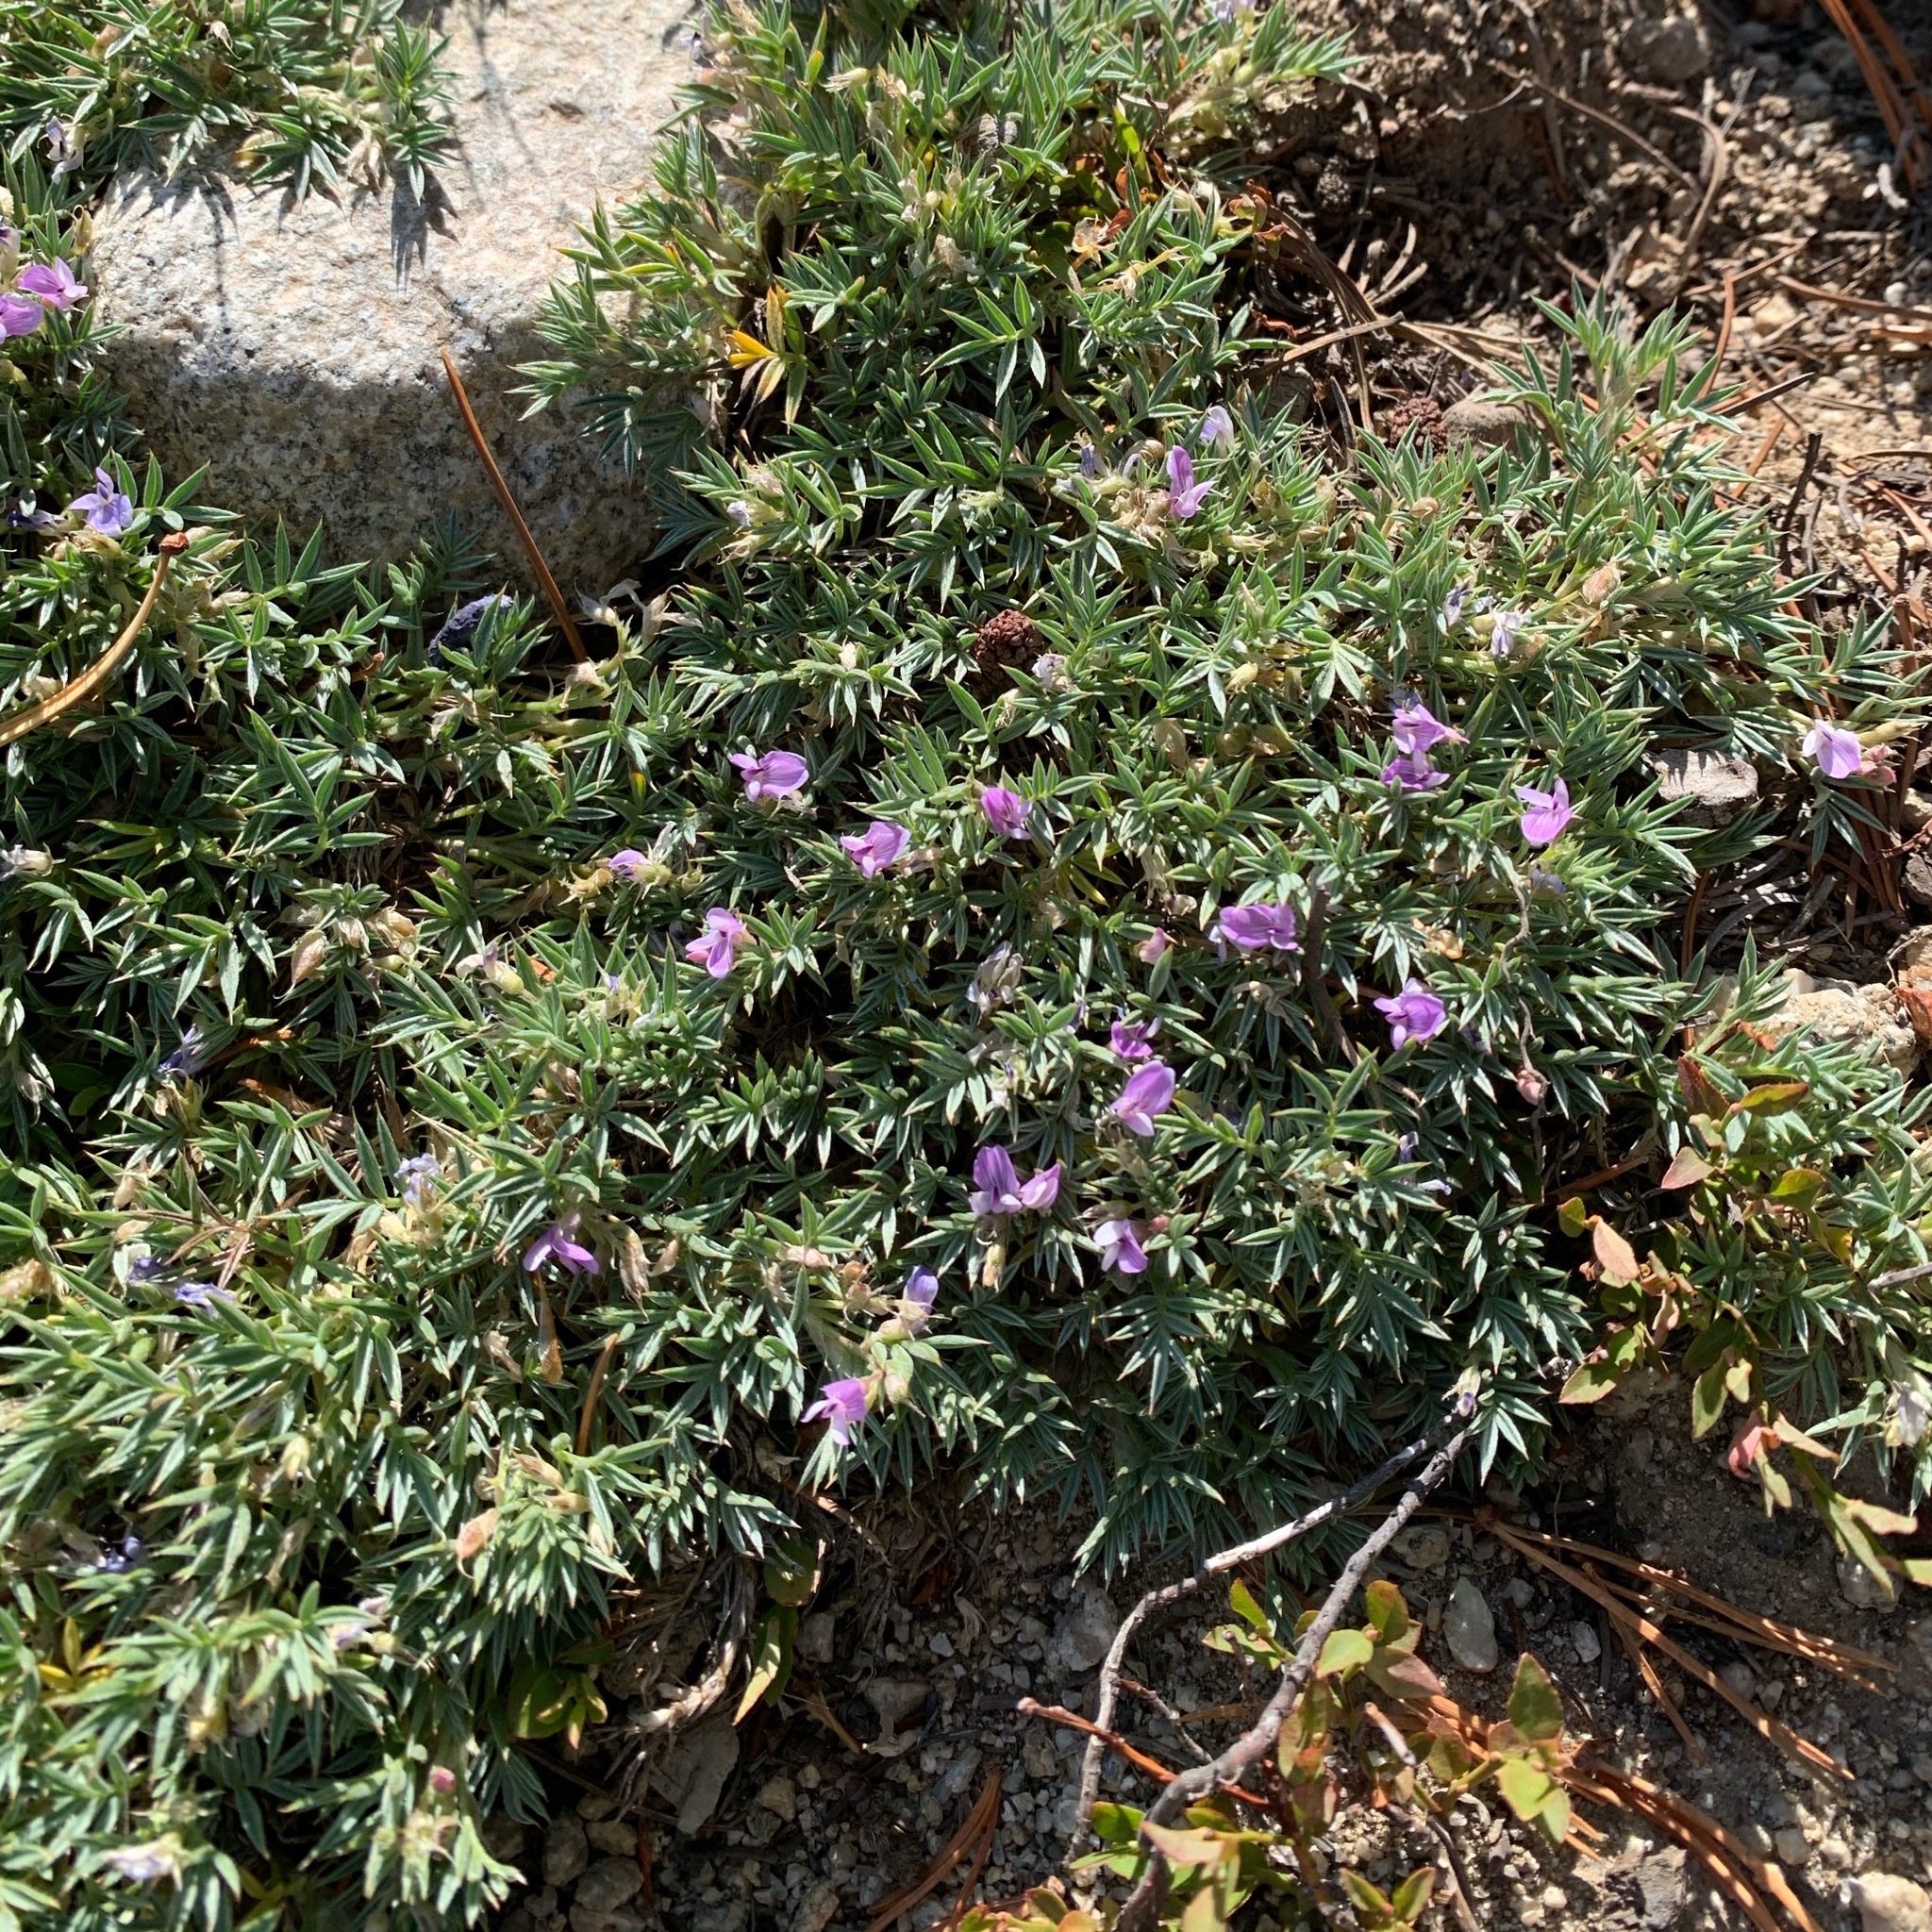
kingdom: Plantae
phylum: Tracheophyta
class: Magnoliopsida
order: Fabales
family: Fabaceae
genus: Astragalus
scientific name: Astragalus kentrophyta
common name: Prickly milk-vetch
